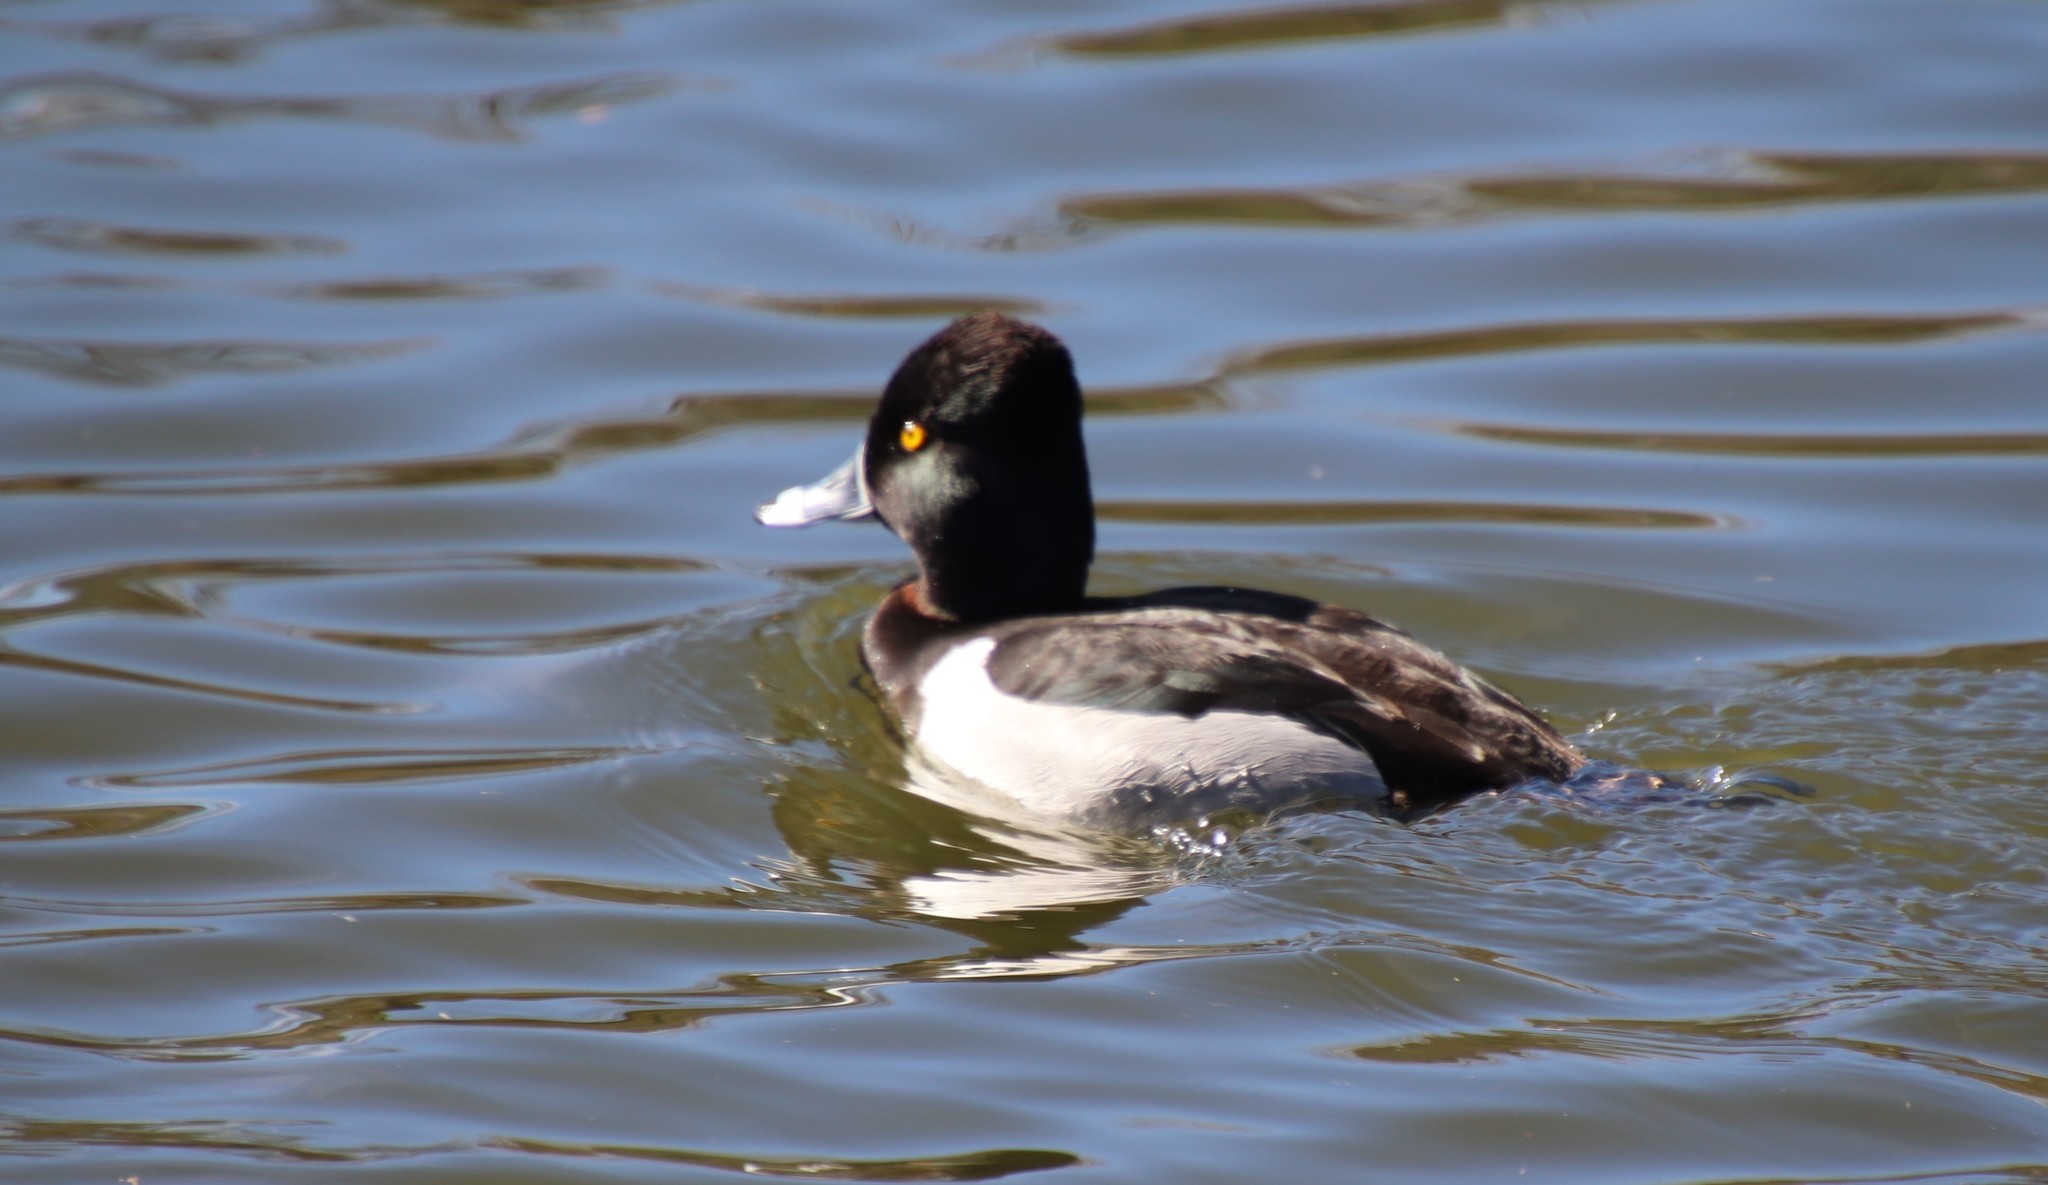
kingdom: Animalia
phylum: Chordata
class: Aves
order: Anseriformes
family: Anatidae
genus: Aythya
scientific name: Aythya collaris
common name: Ring-necked duck
